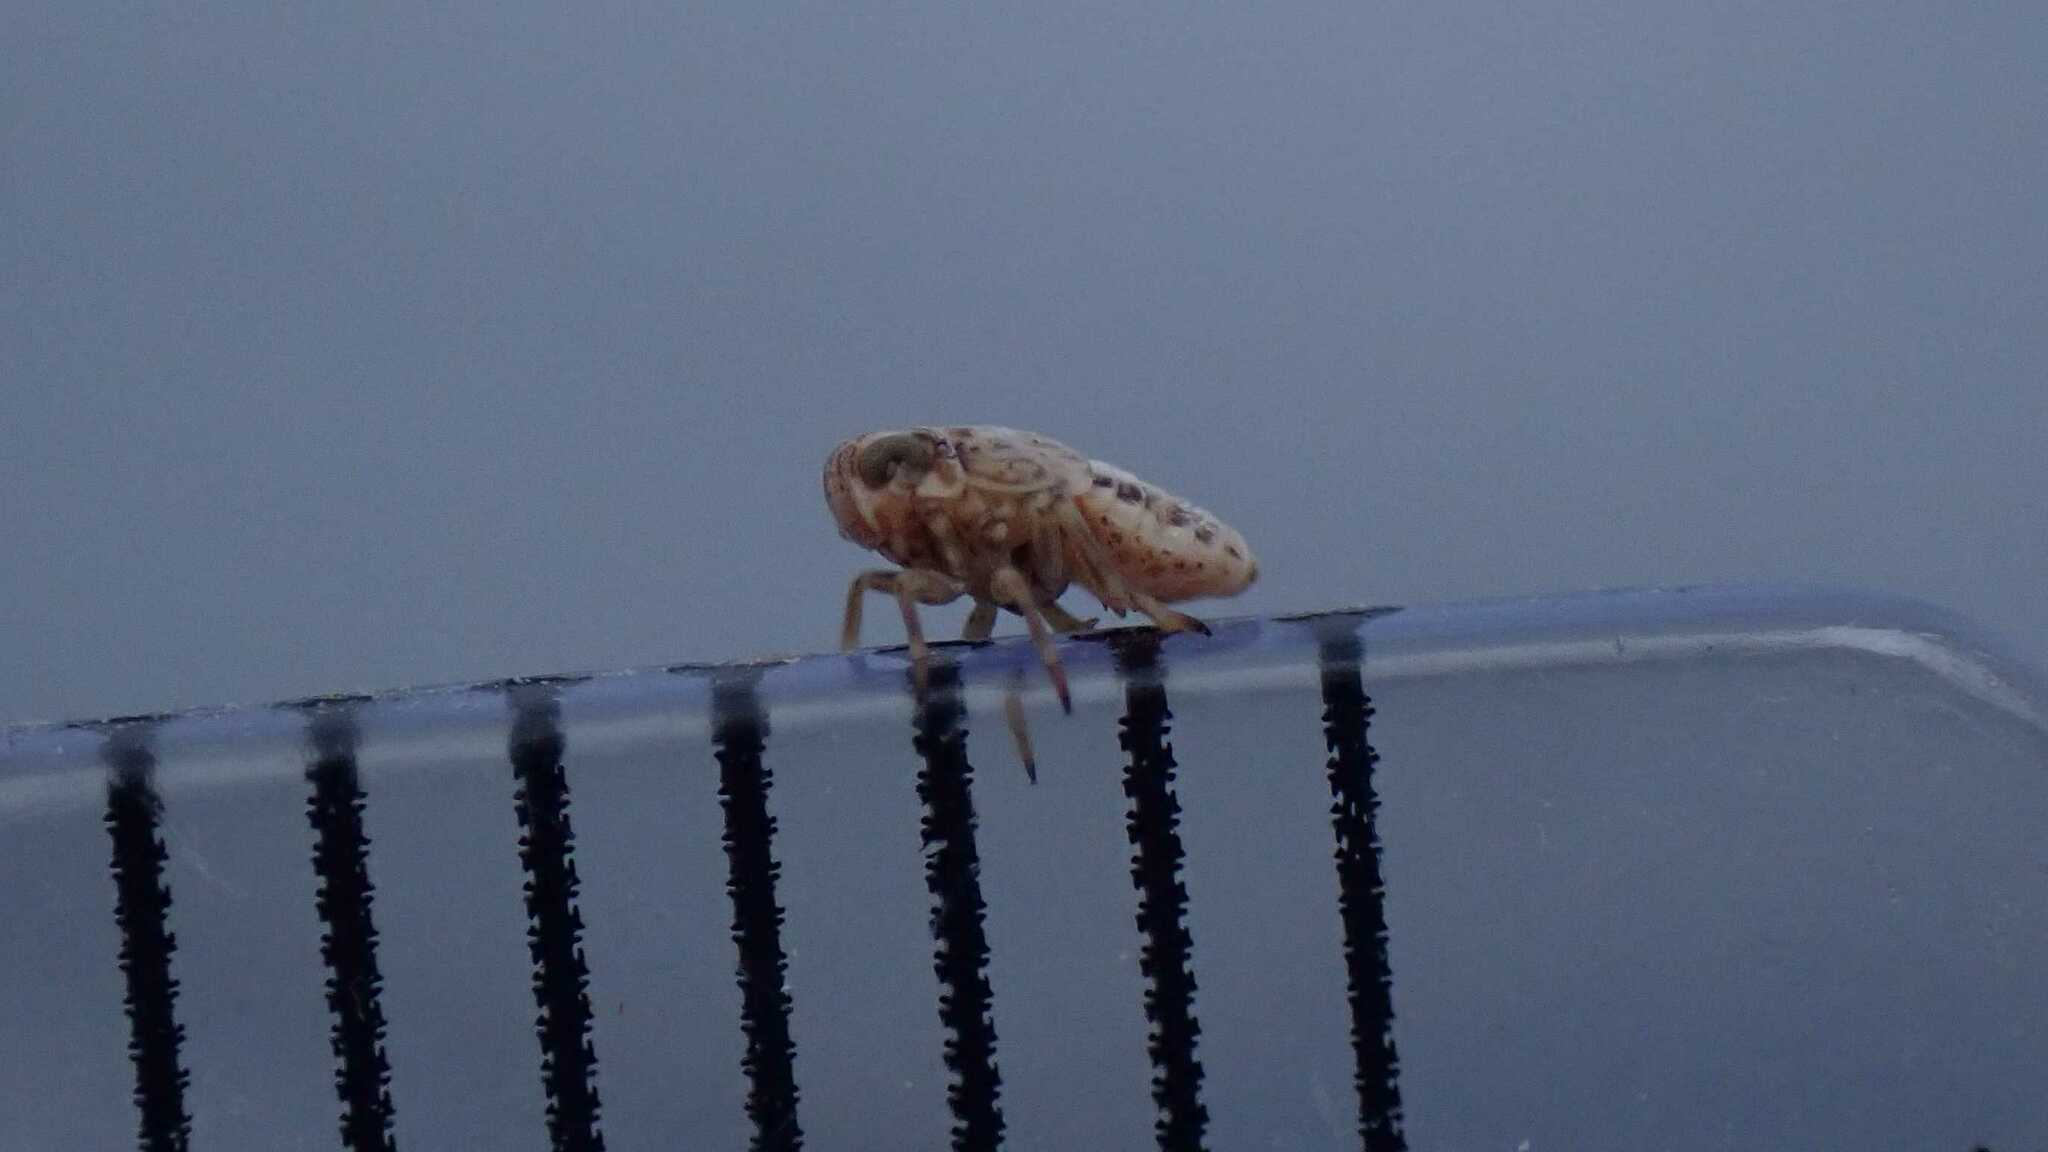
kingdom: Animalia
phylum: Arthropoda
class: Insecta
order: Hemiptera
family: Delphacidae
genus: Javesella
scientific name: Javesella stali
